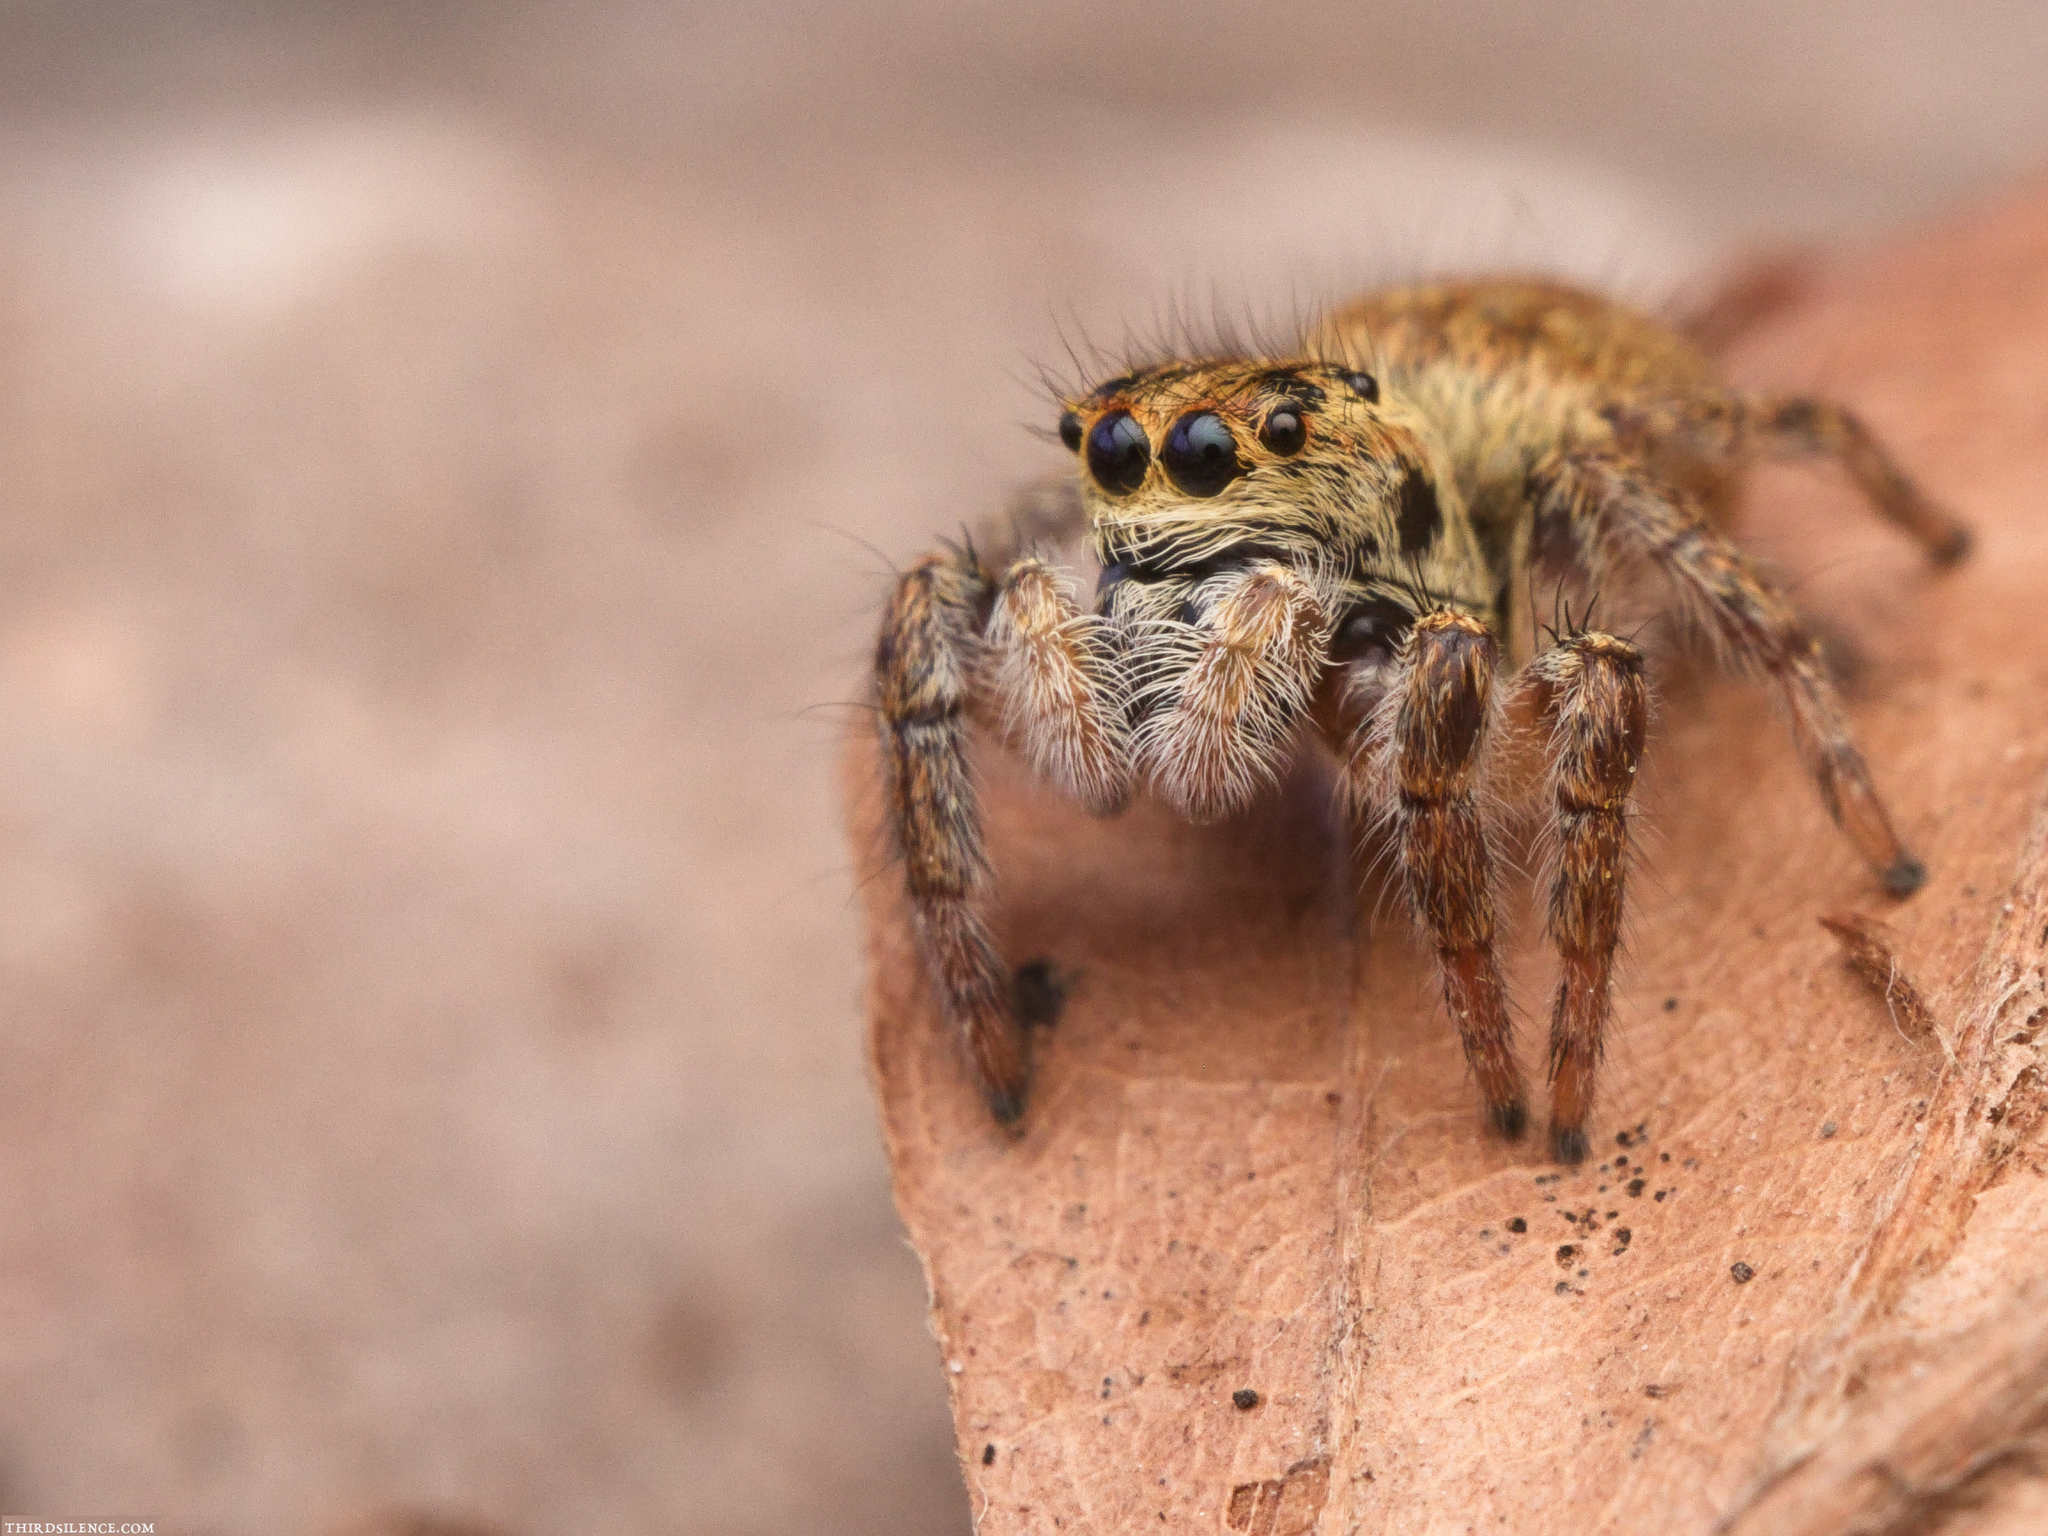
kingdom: Animalia
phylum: Arthropoda
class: Arachnida
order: Araneae
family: Salticidae
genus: Carrhotus
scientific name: Carrhotus xanthogramma
